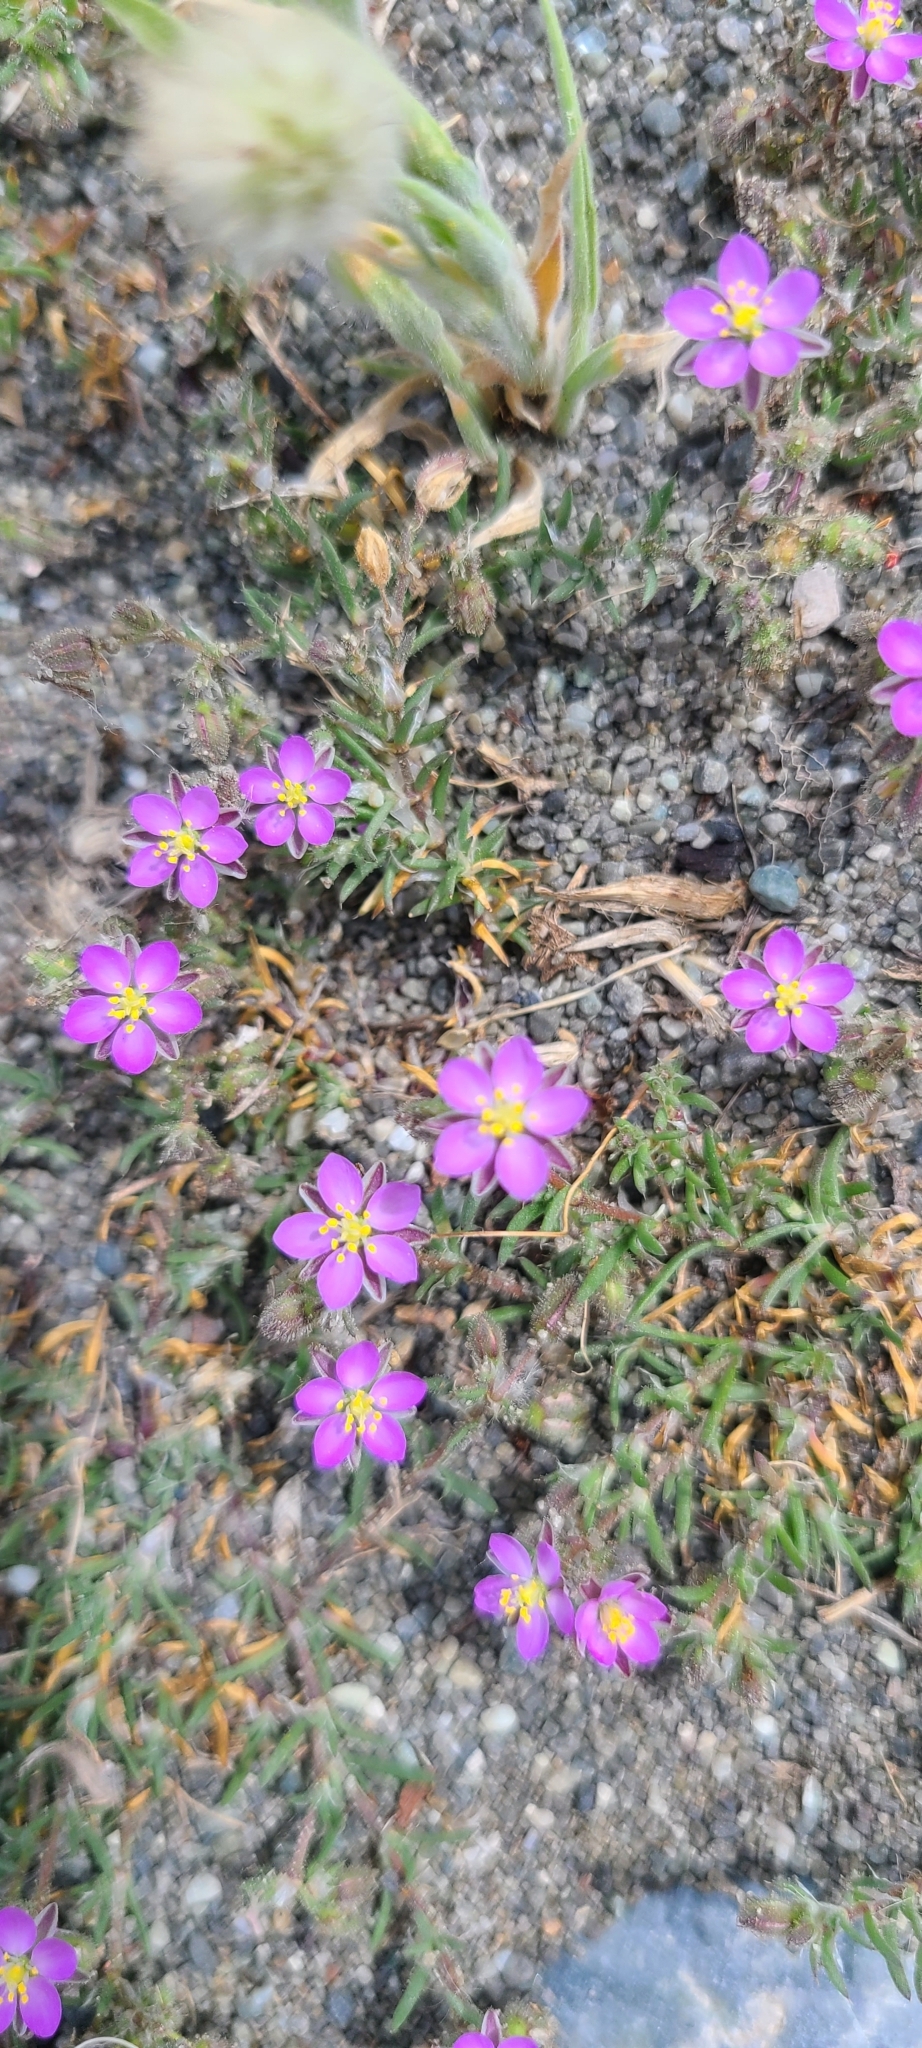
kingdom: Plantae
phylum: Tracheophyta
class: Magnoliopsida
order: Caryophyllales
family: Caryophyllaceae
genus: Spergularia
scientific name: Spergularia rubra
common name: Red sand-spurrey
